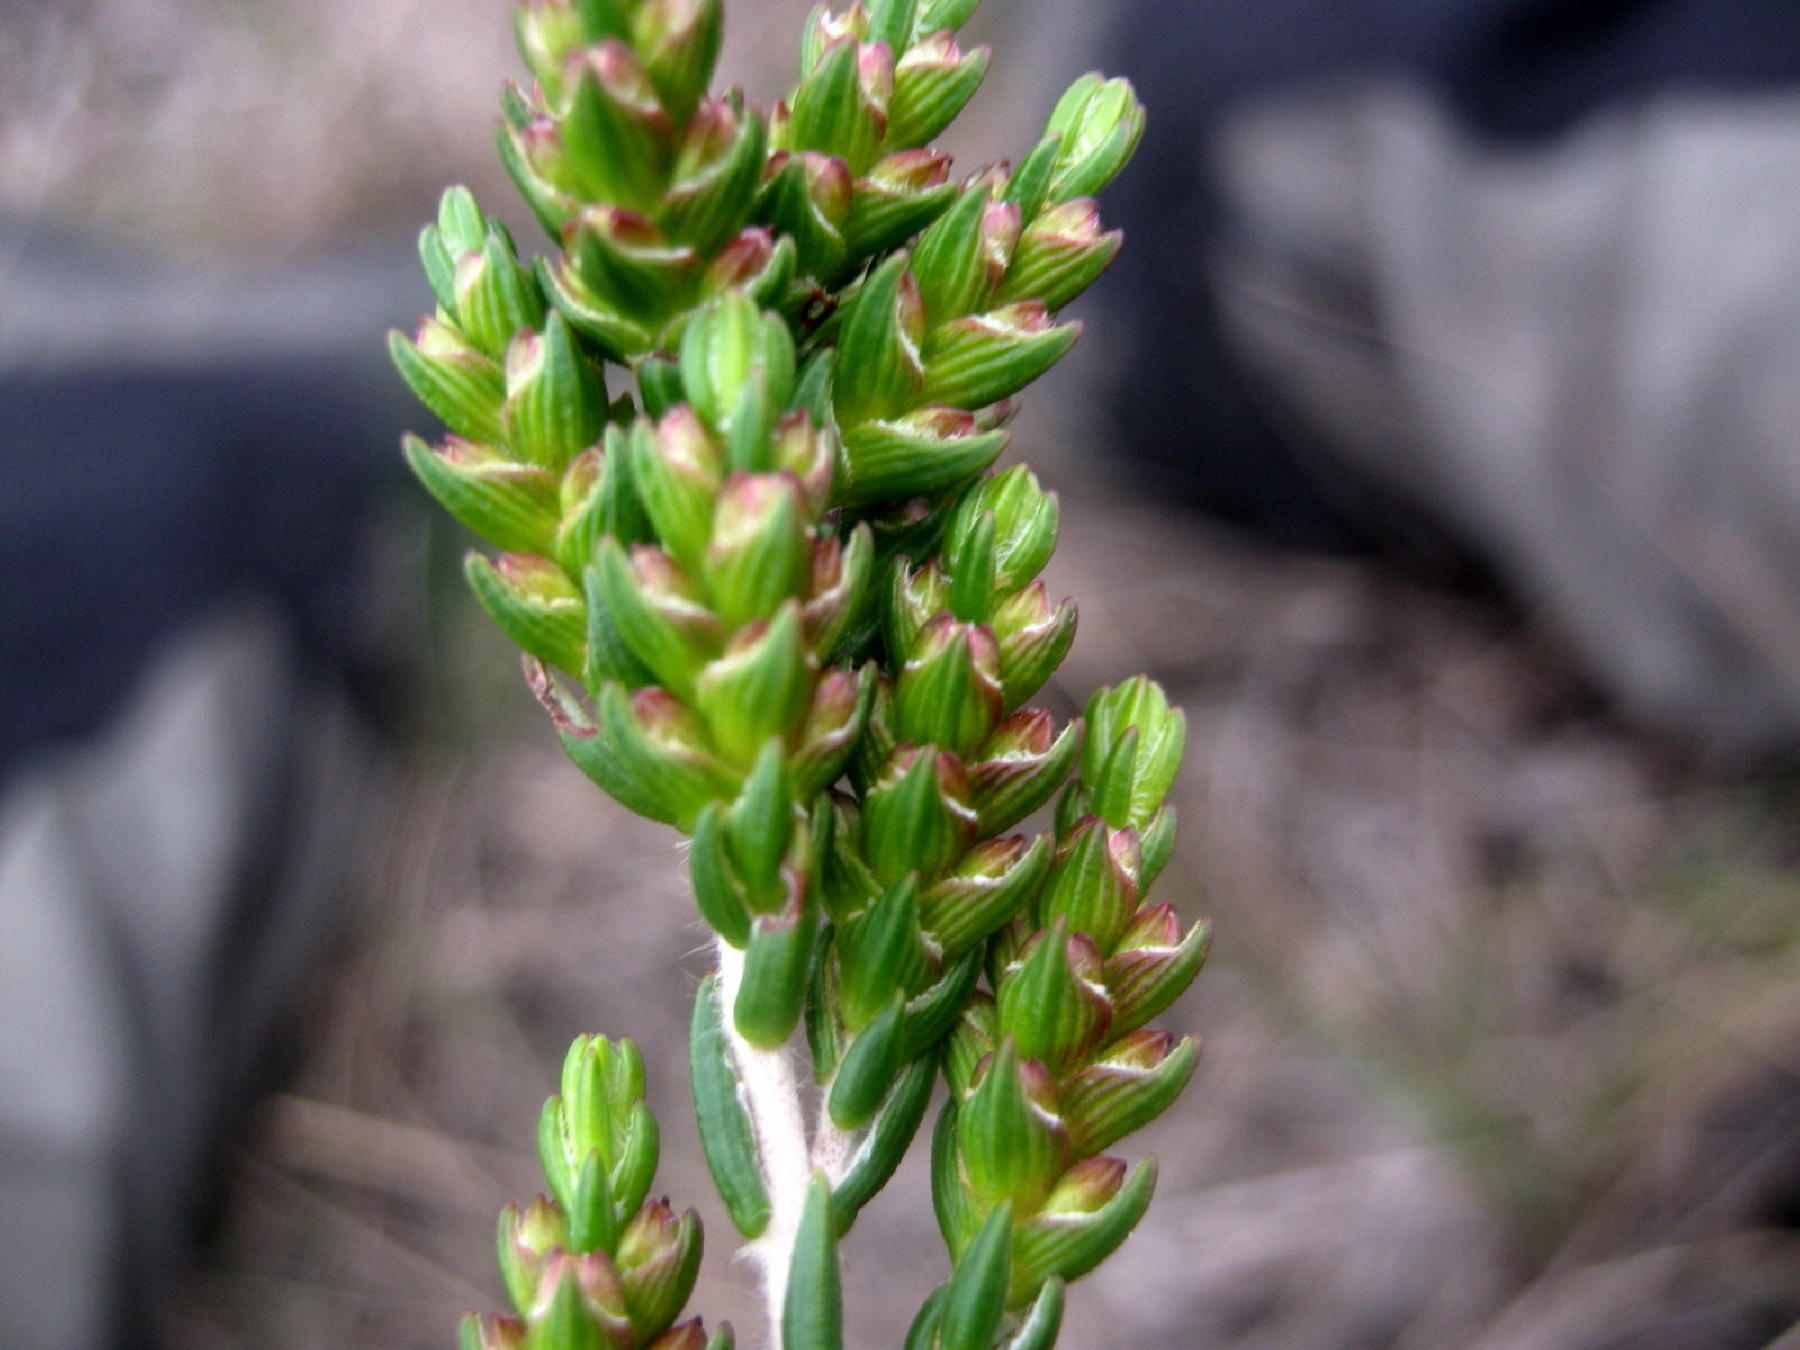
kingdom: Plantae
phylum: Tracheophyta
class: Magnoliopsida
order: Malvales
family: Thymelaeaceae
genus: Passerina
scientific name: Passerina rubra
